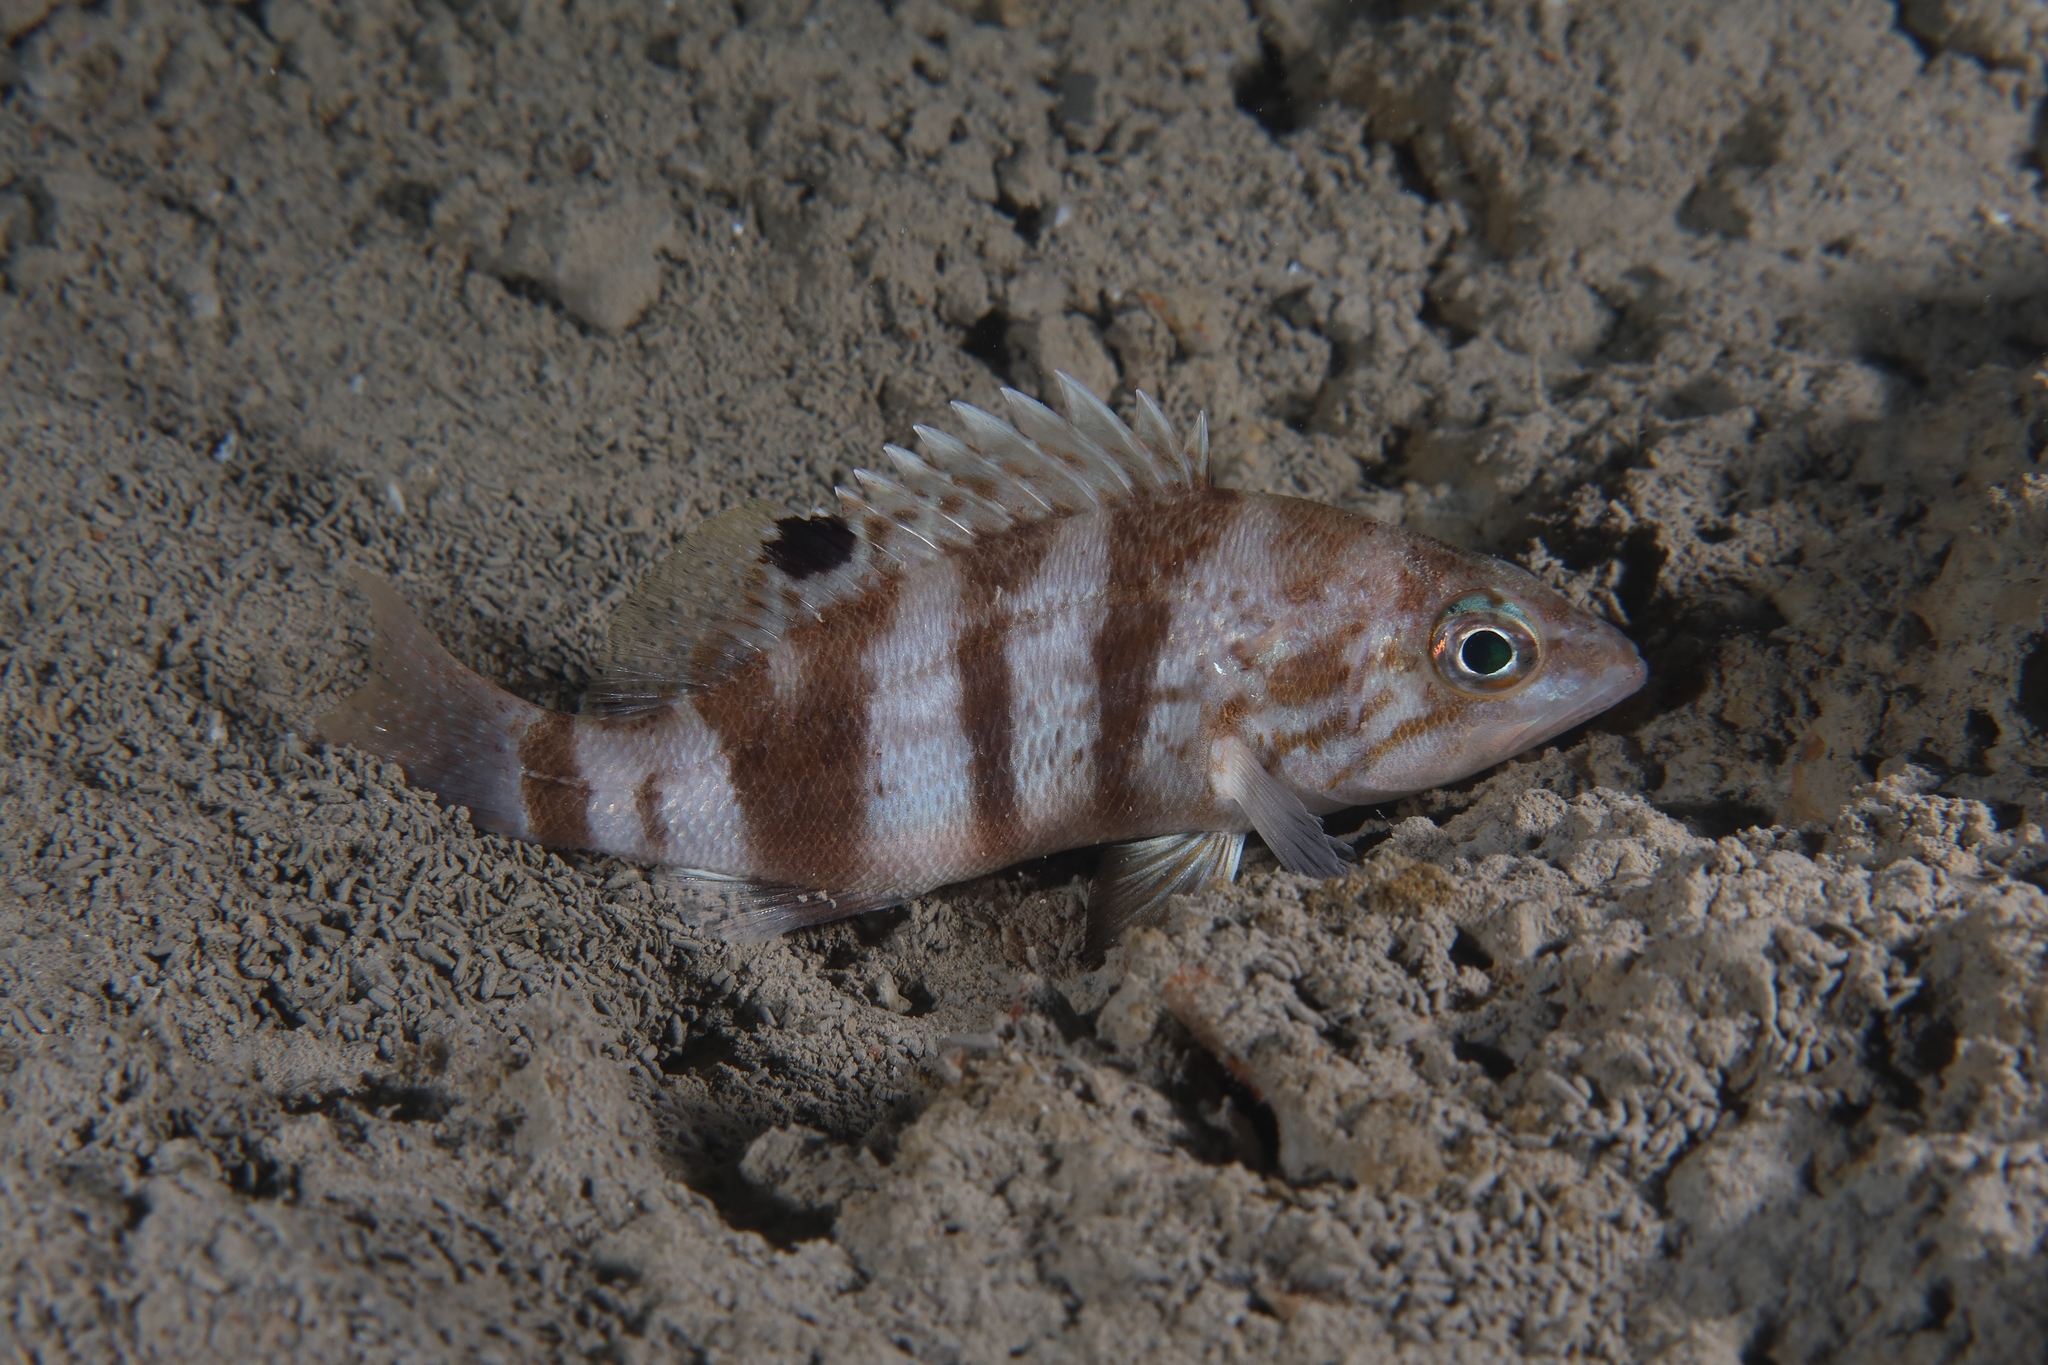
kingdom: Animalia
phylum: Chordata
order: Perciformes
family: Serranidae
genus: Serranus
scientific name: Serranus hepatus
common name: Brown comber
